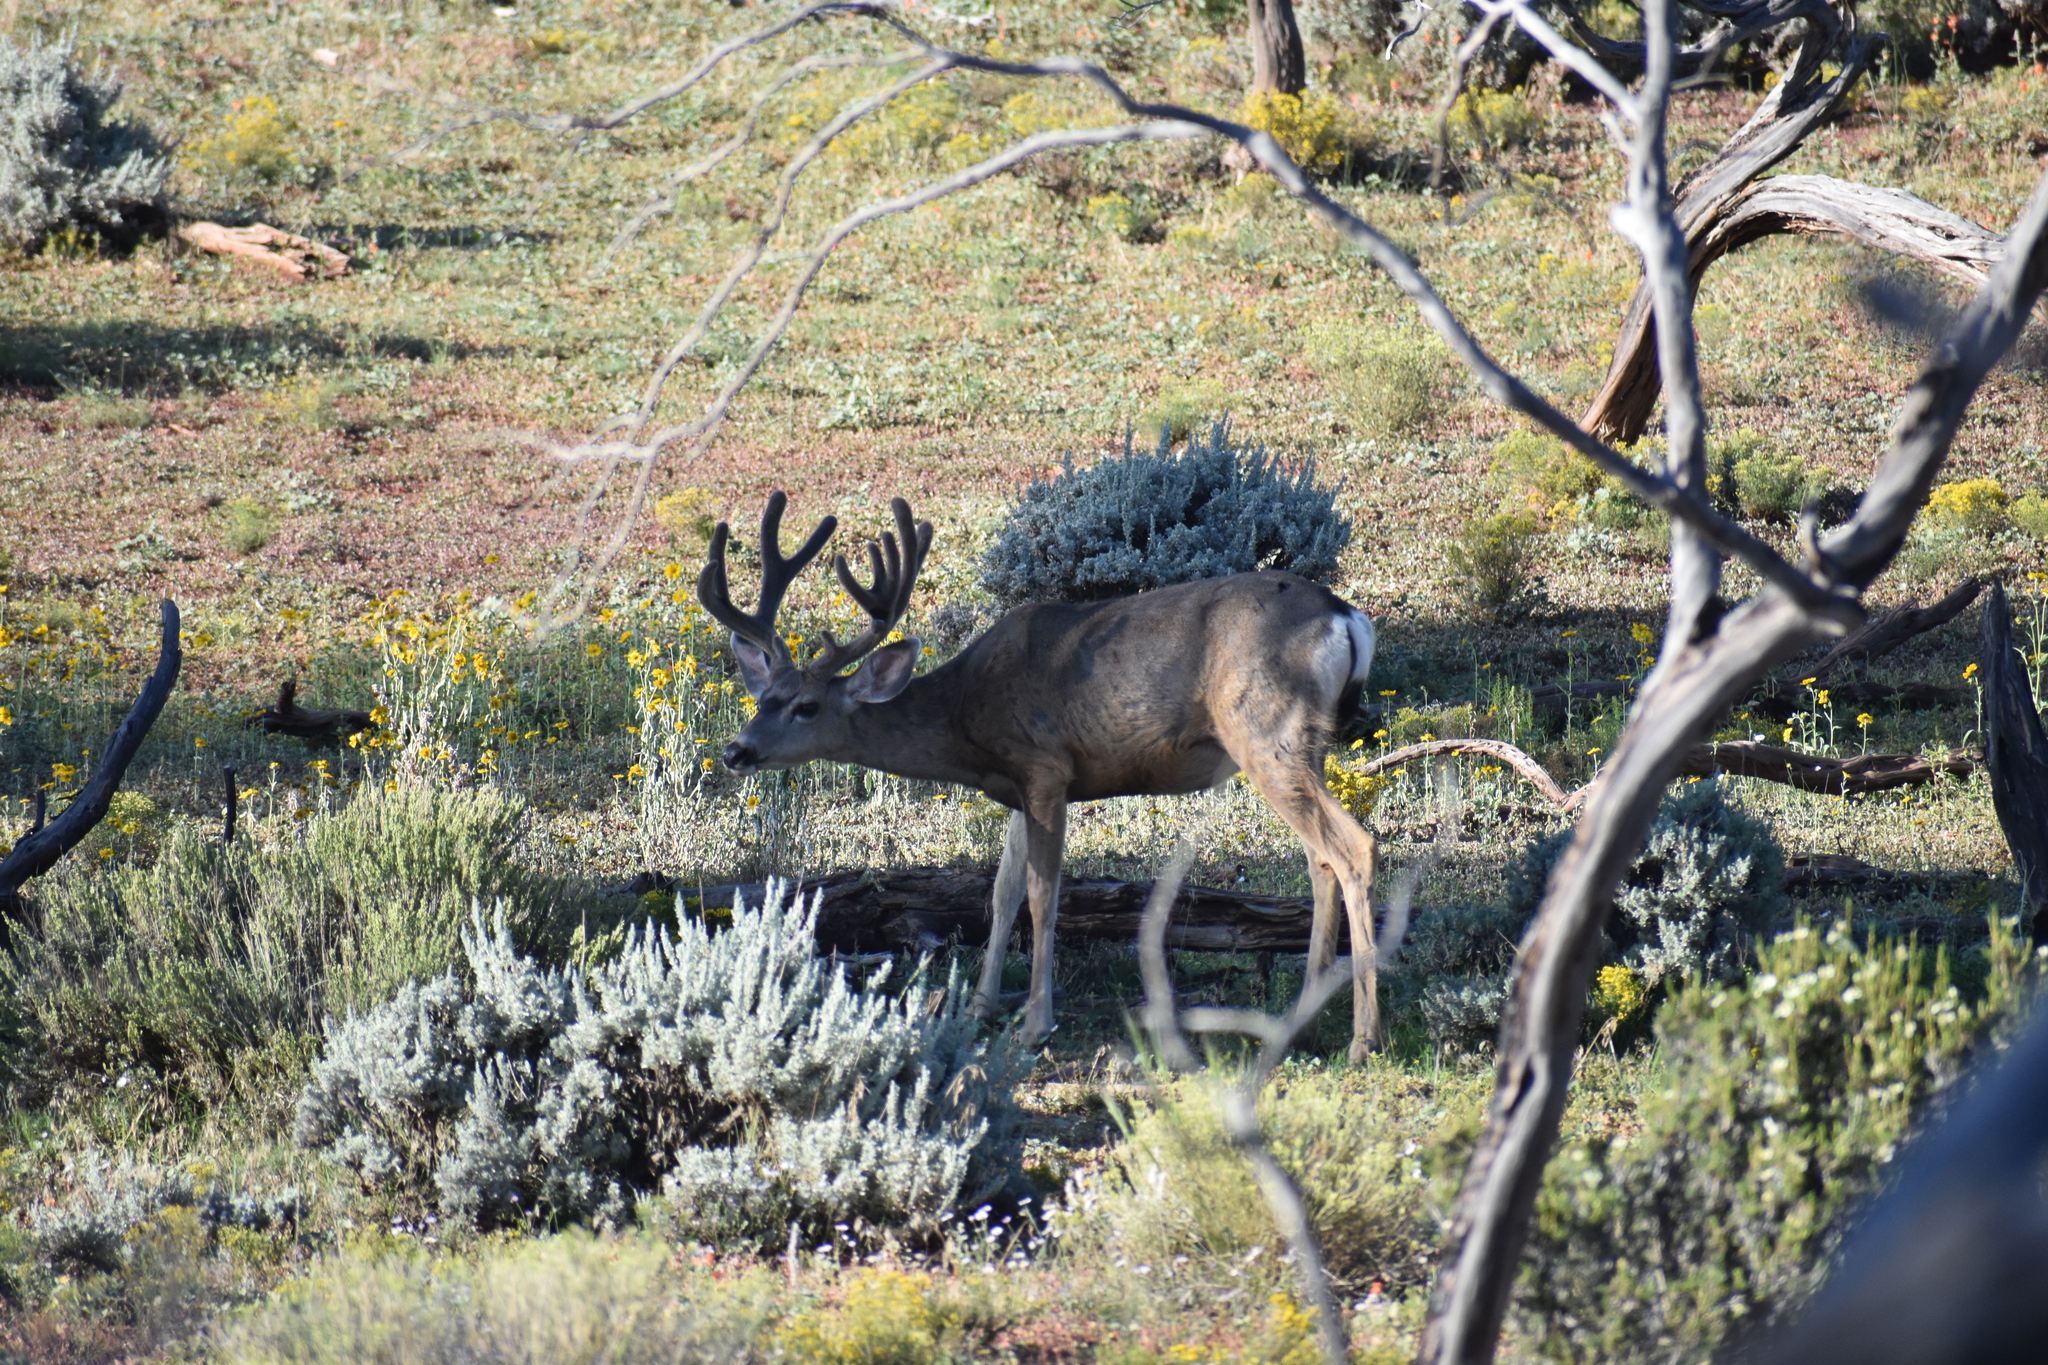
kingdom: Animalia
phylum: Chordata
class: Mammalia
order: Artiodactyla
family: Cervidae
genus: Odocoileus
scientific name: Odocoileus hemionus
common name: Mule deer
